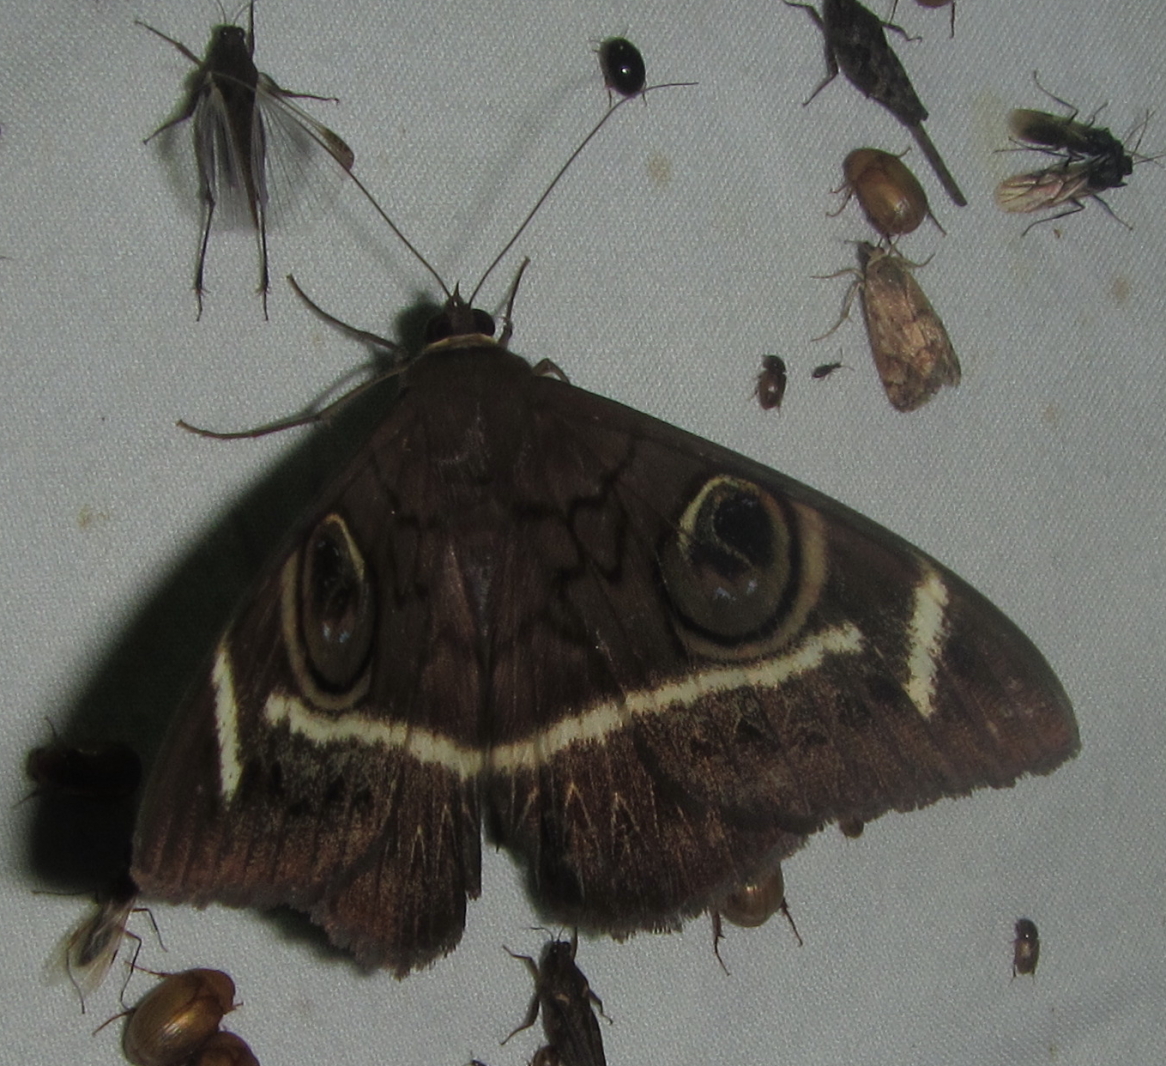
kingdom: Animalia
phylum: Arthropoda
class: Insecta
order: Lepidoptera
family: Erebidae
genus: Cyligramma
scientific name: Cyligramma latona
